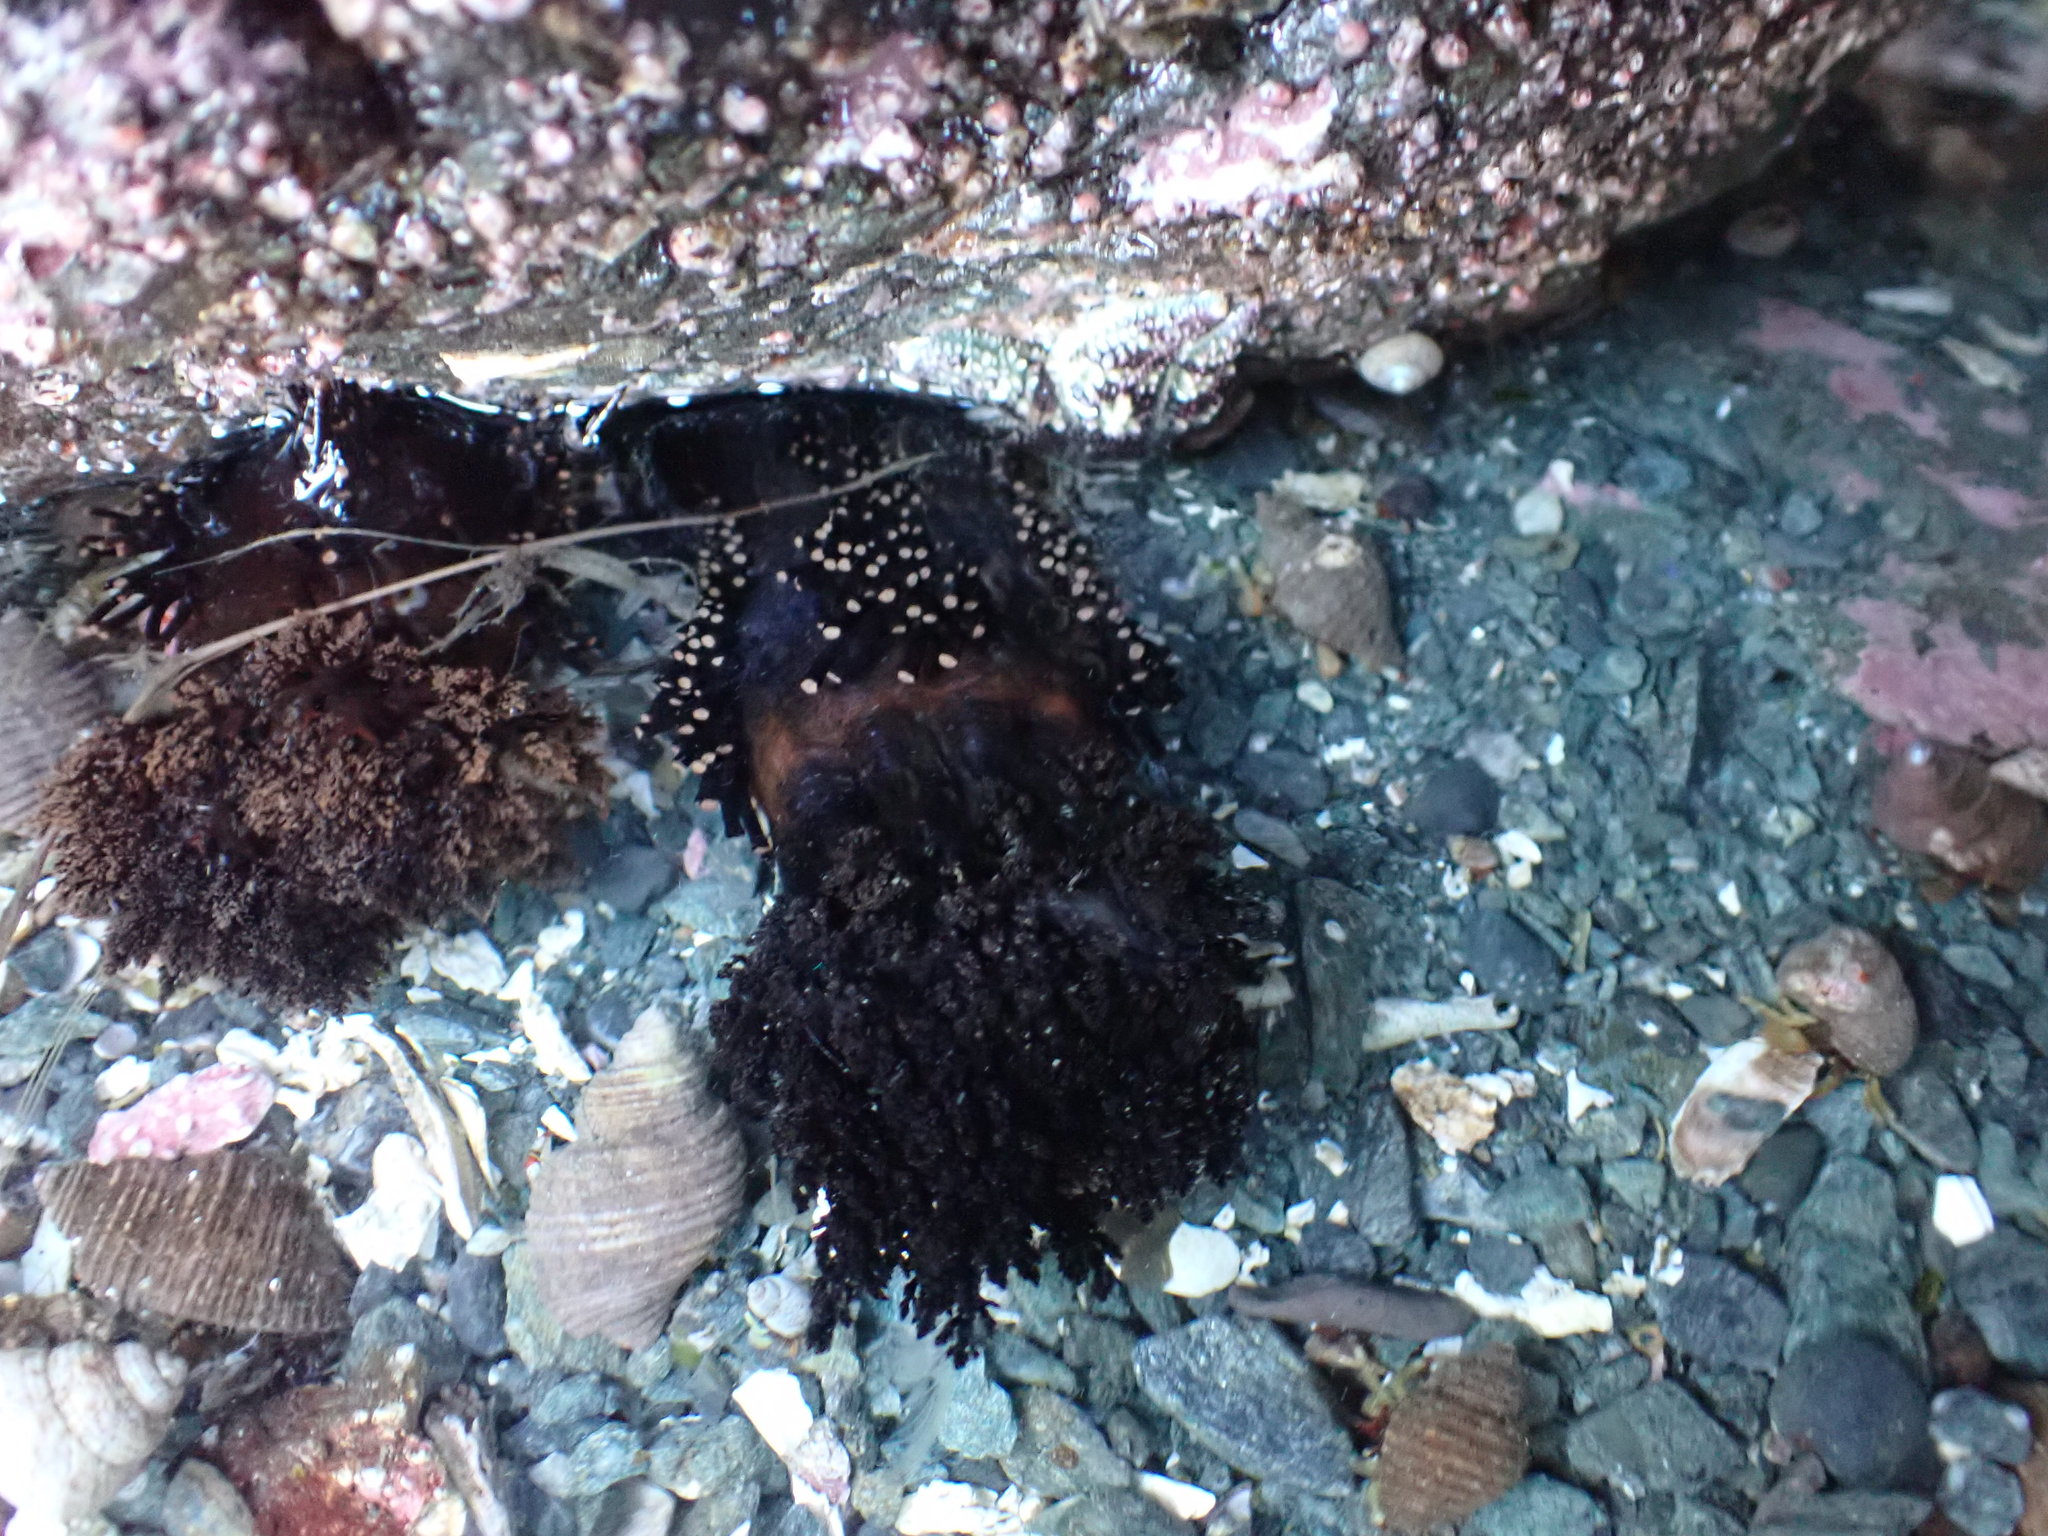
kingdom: Animalia
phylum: Echinodermata
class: Holothuroidea
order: Dendrochirotida
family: Cucumariidae
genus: Cucumaria
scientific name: Cucumaria miniata
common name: Orange sea cucumber
